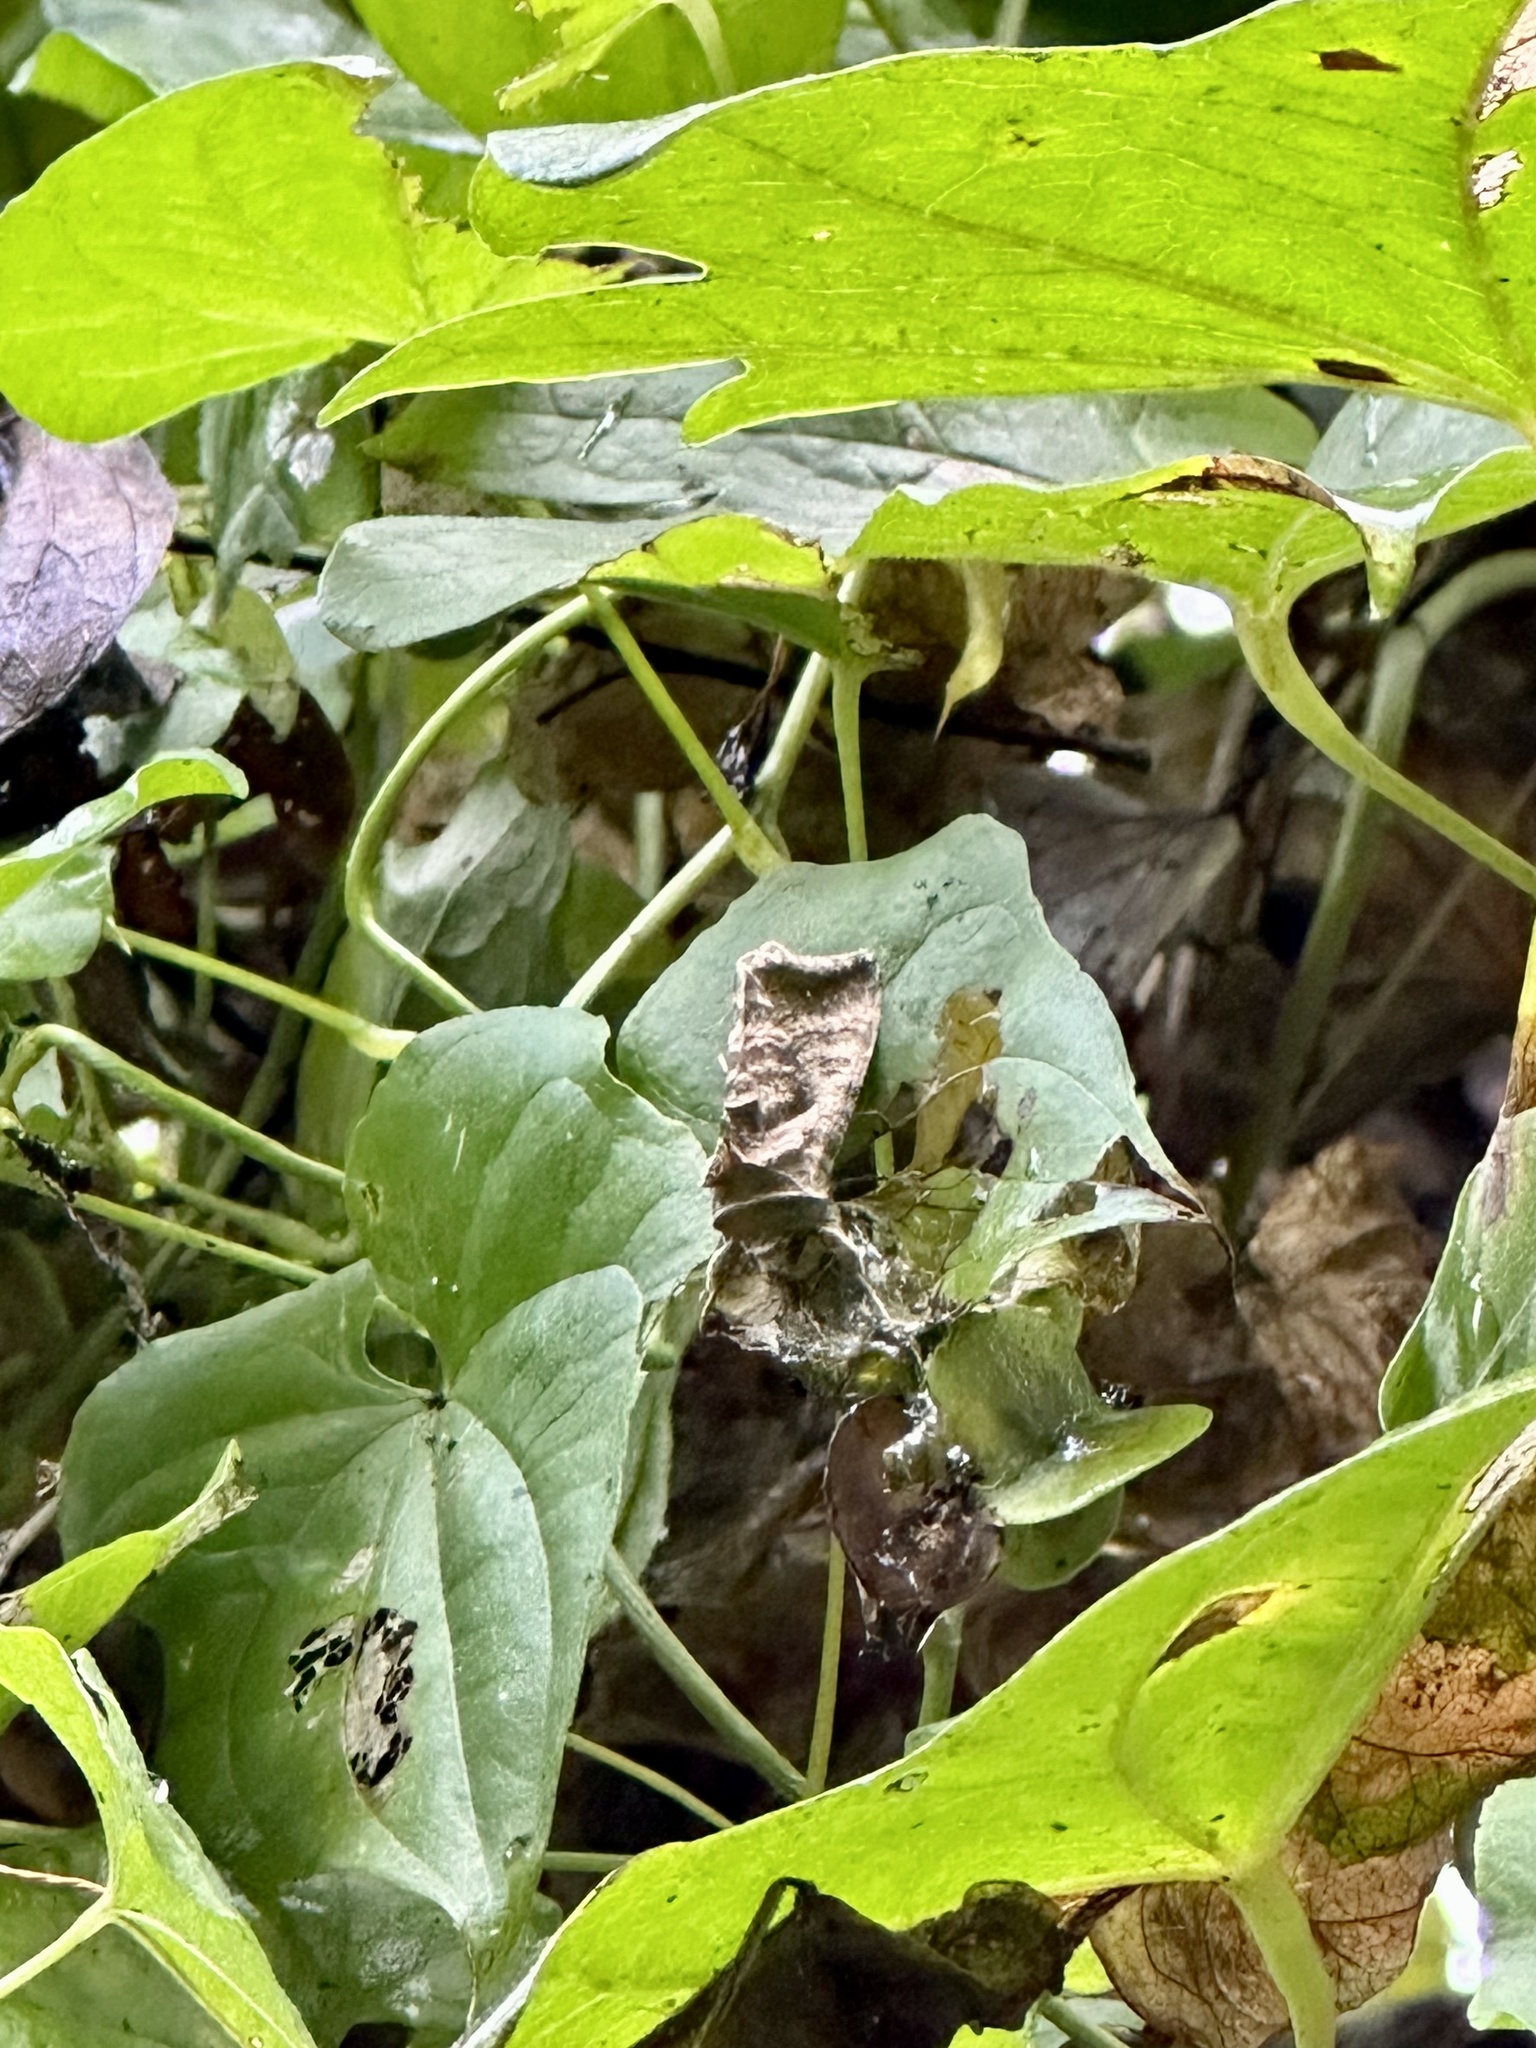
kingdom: Animalia
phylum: Arthropoda
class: Insecta
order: Lepidoptera
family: Noctuidae
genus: Anadevidia
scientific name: Anadevidia peponis
